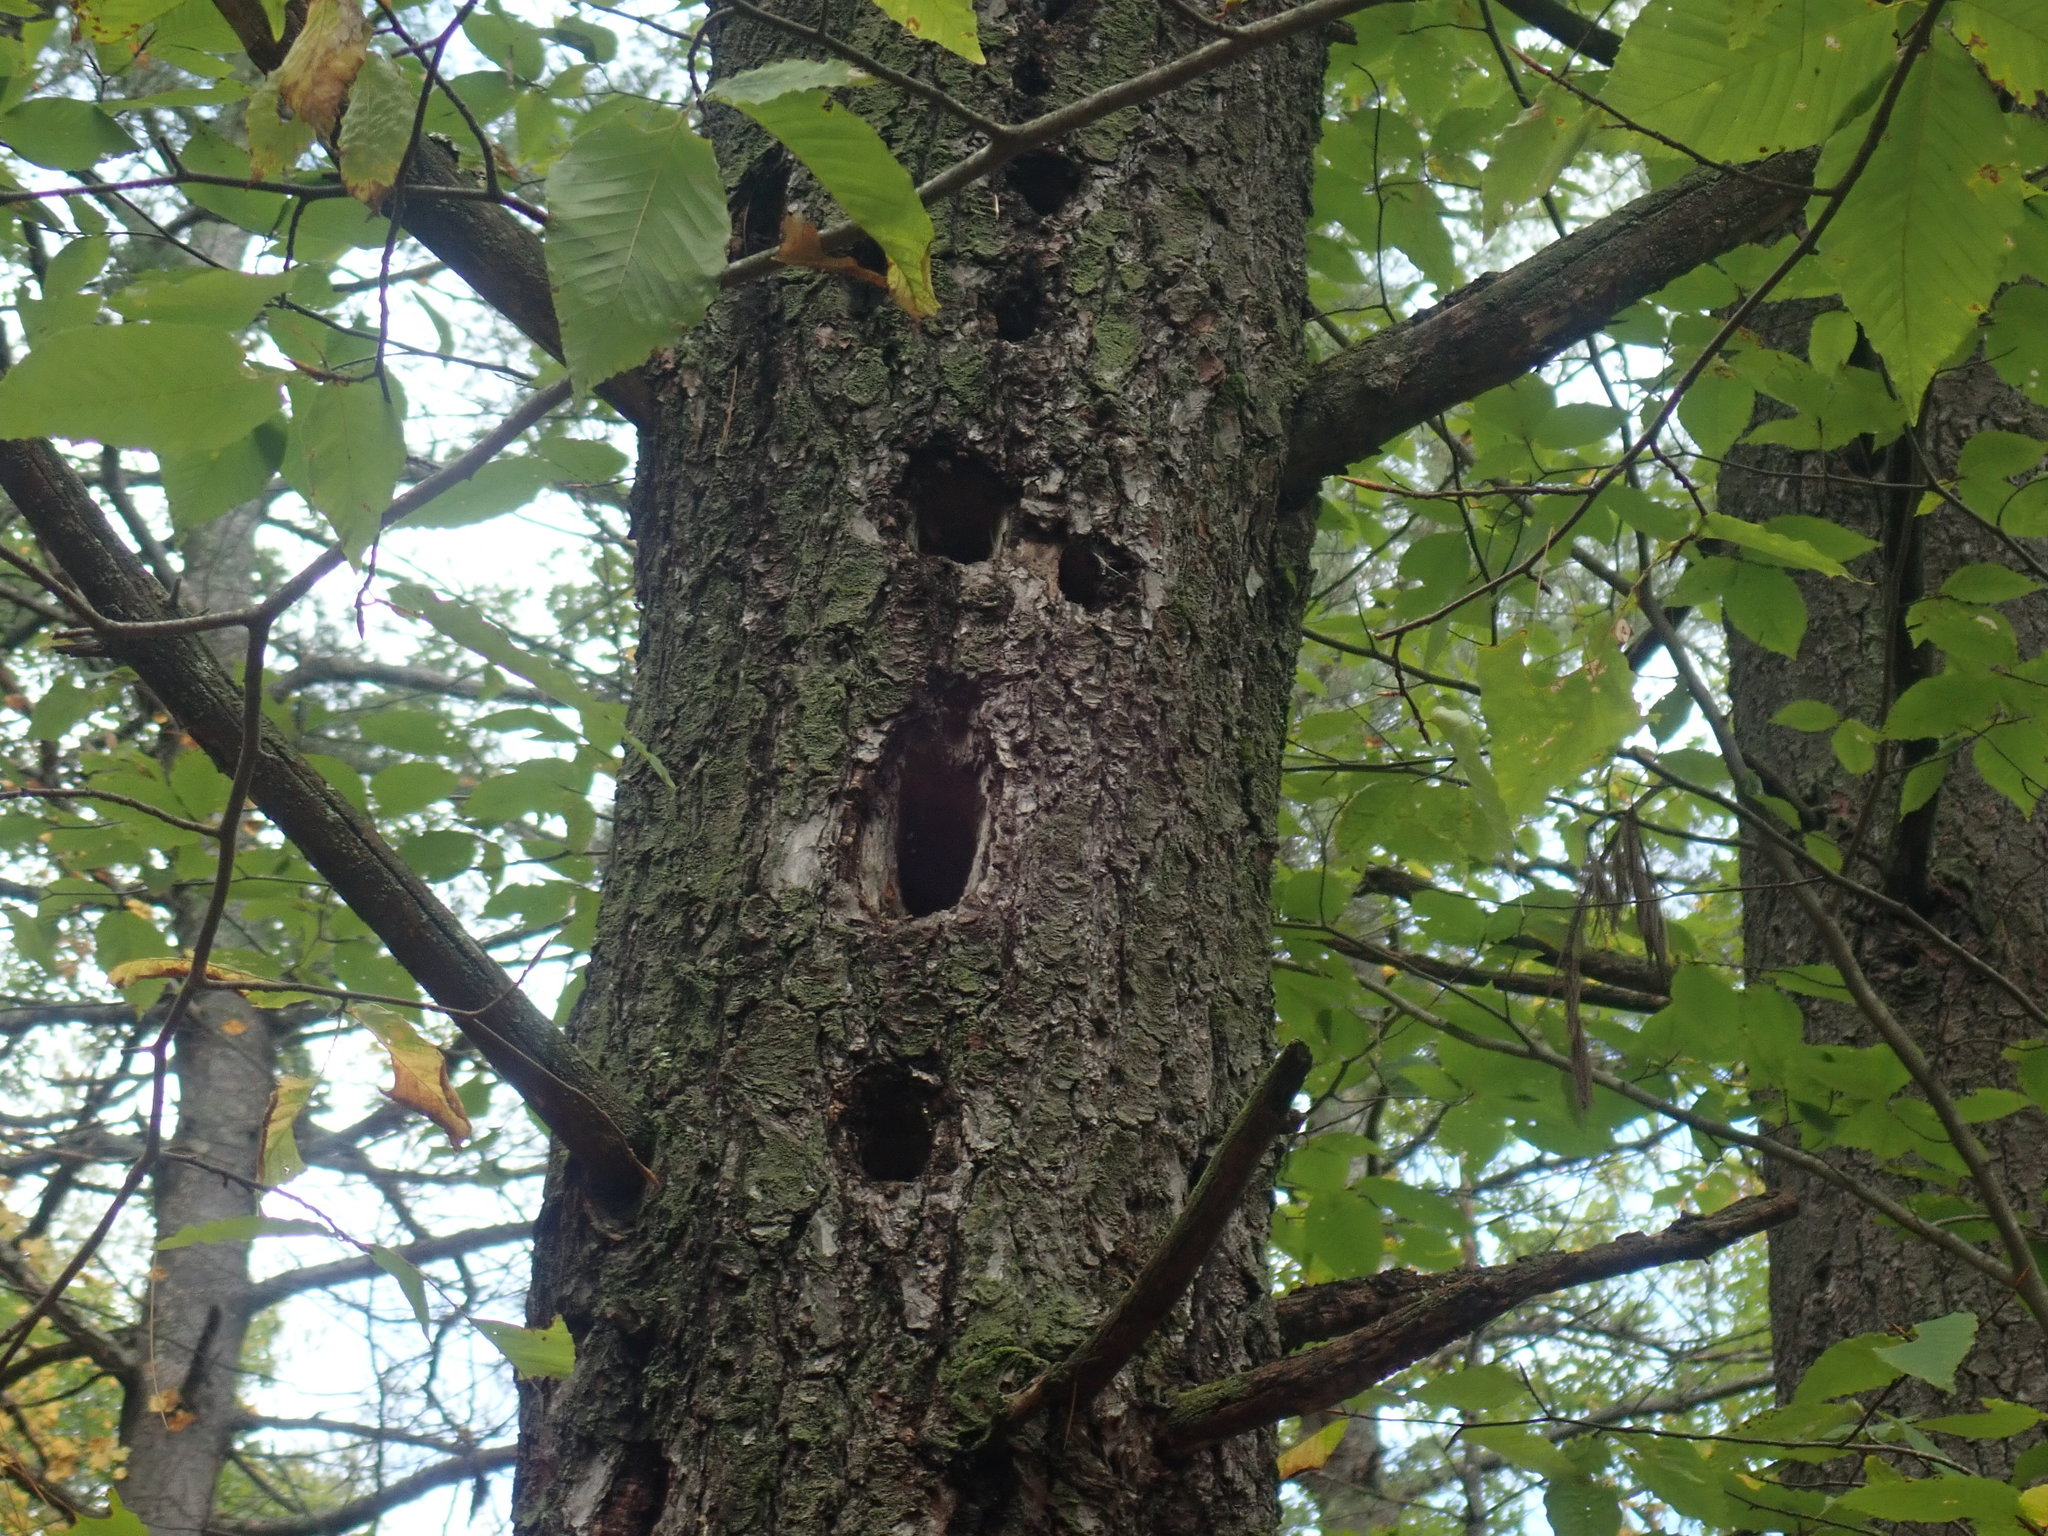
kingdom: Animalia
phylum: Chordata
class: Aves
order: Piciformes
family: Picidae
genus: Dryocopus
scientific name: Dryocopus pileatus
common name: Pileated woodpecker
